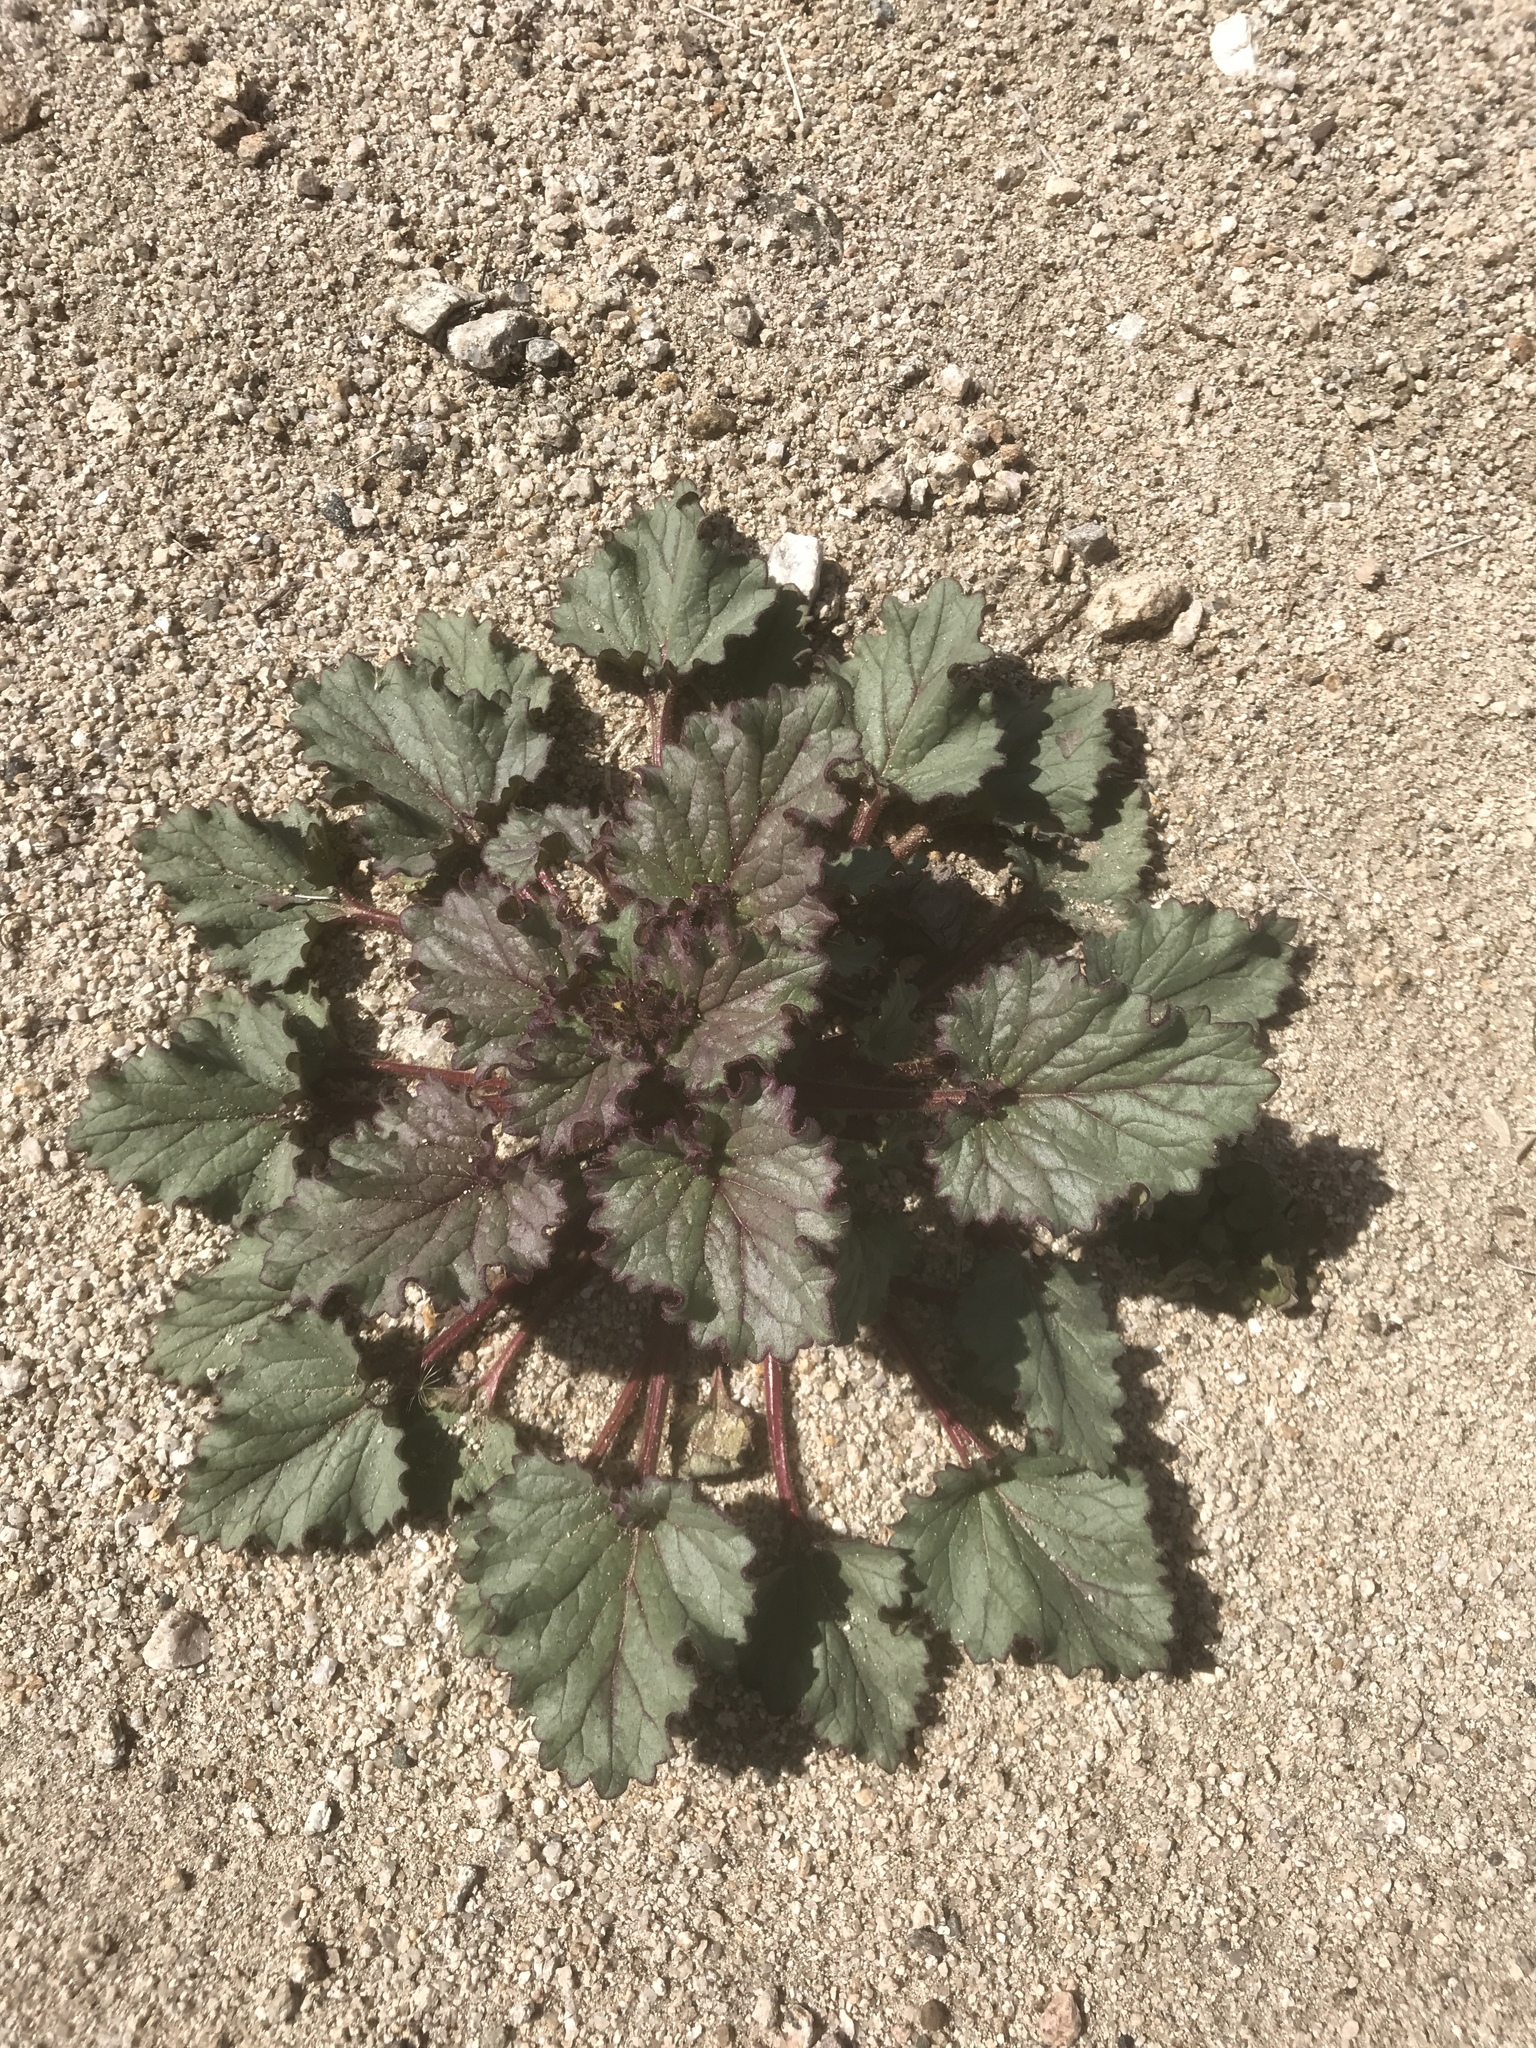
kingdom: Plantae
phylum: Tracheophyta
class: Magnoliopsida
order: Boraginales
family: Hydrophyllaceae
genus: Phacelia
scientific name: Phacelia campanularia
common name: California bluebell
